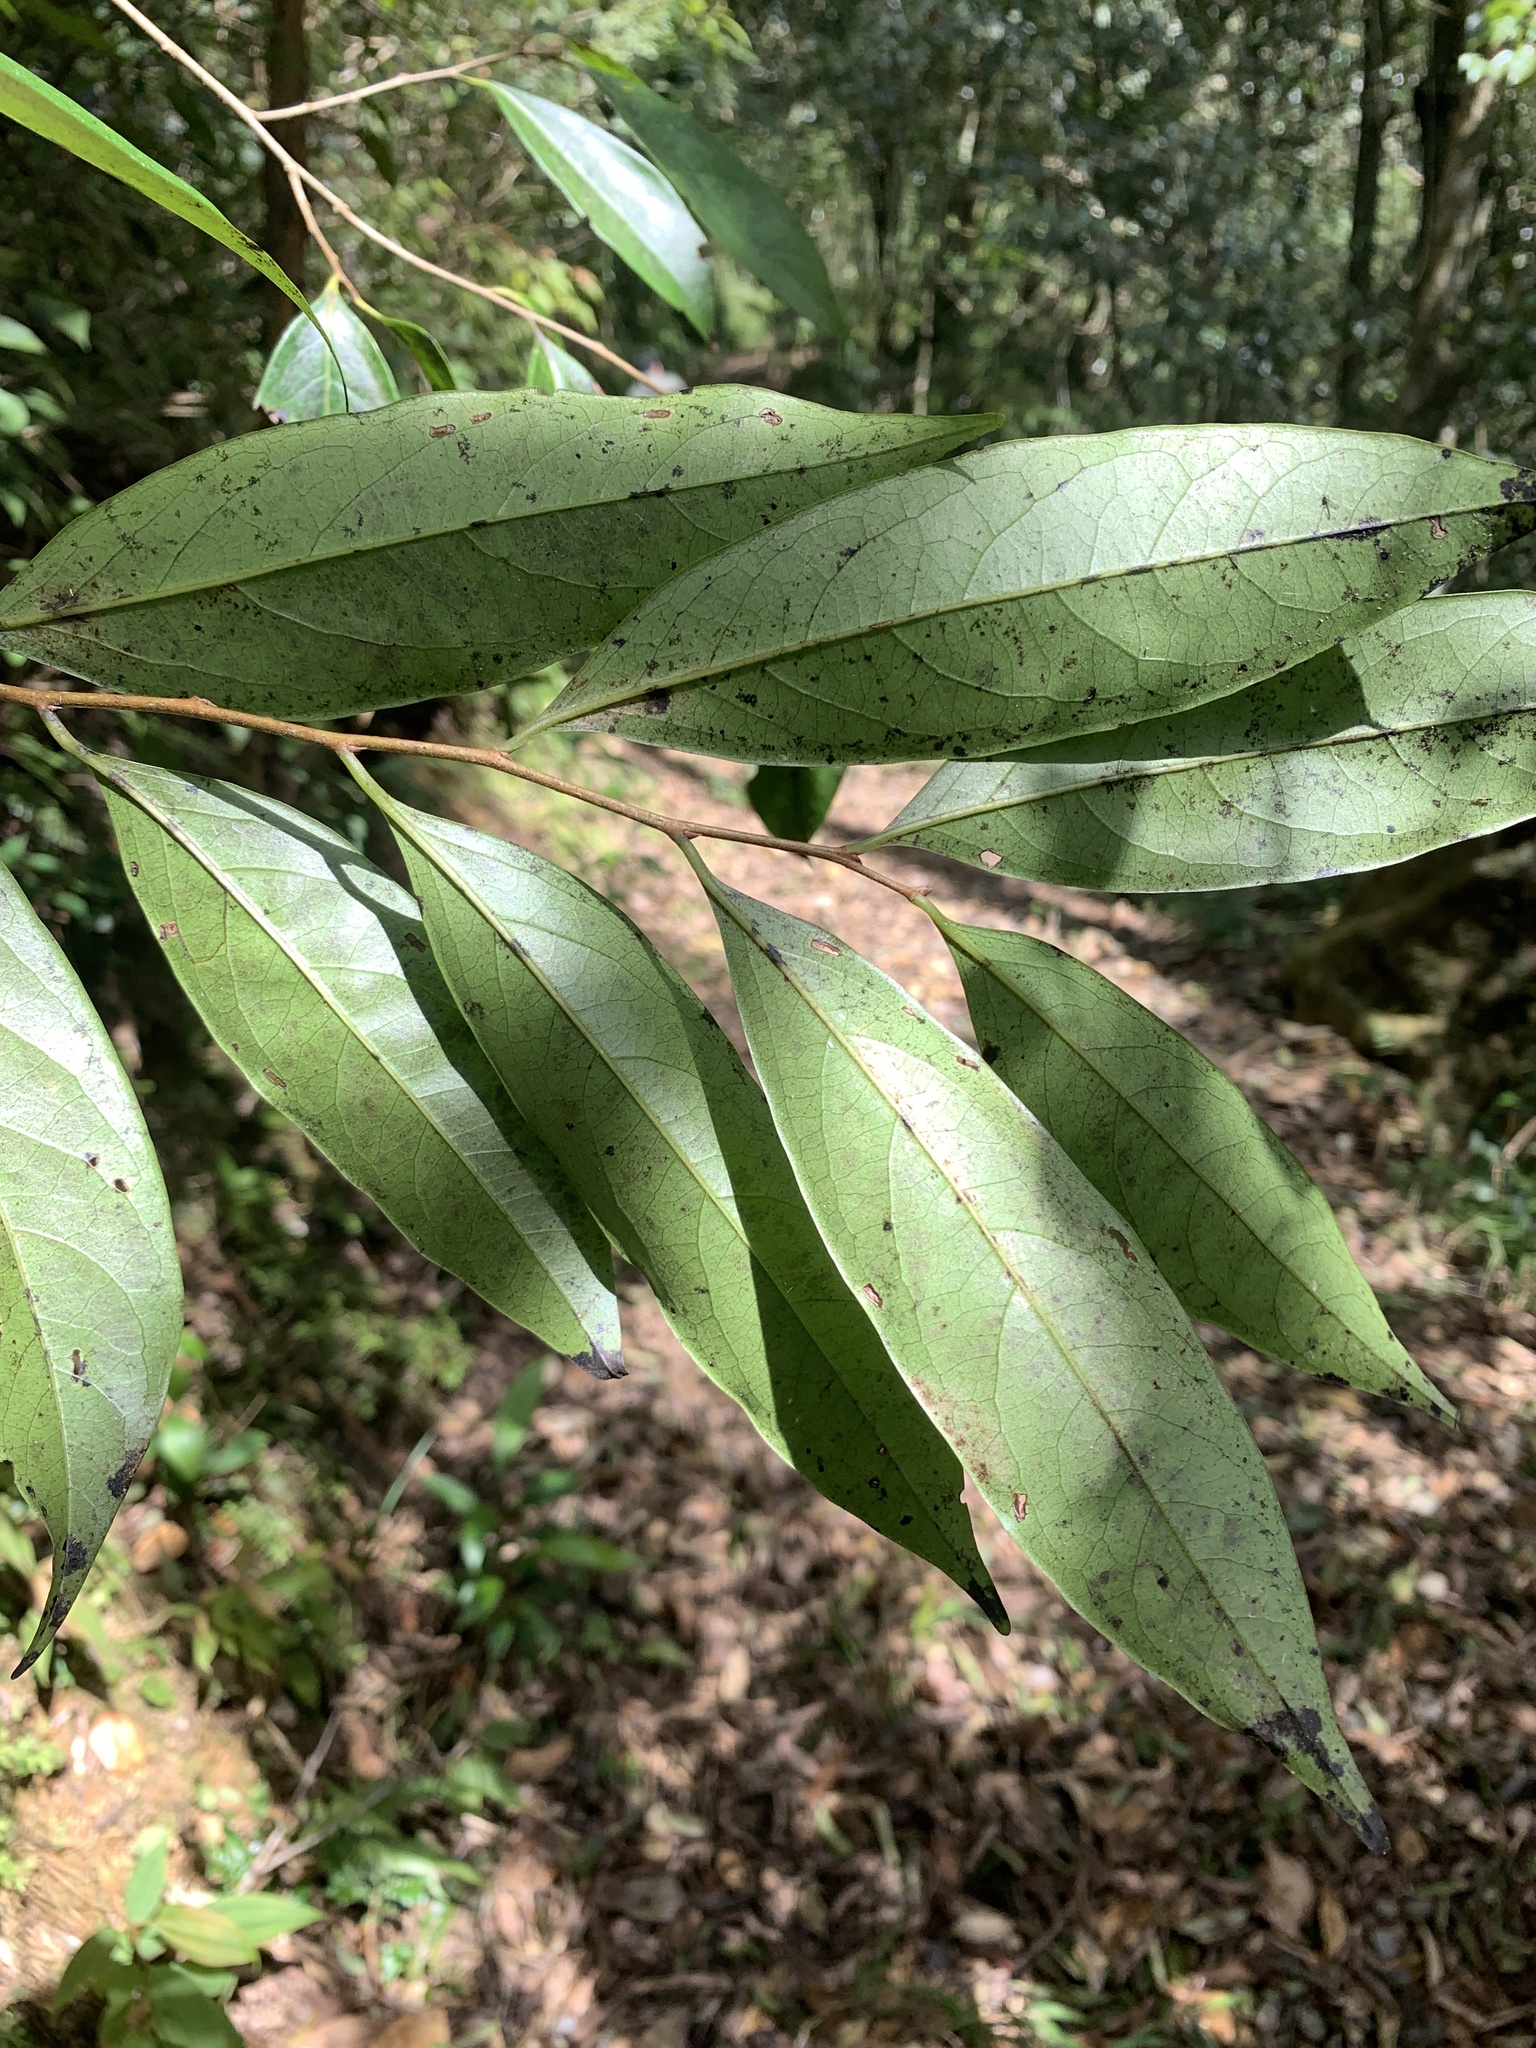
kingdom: Plantae
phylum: Tracheophyta
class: Magnoliopsida
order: Ericales
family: Ebenaceae
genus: Diospyros
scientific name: Diospyros morrisiana
